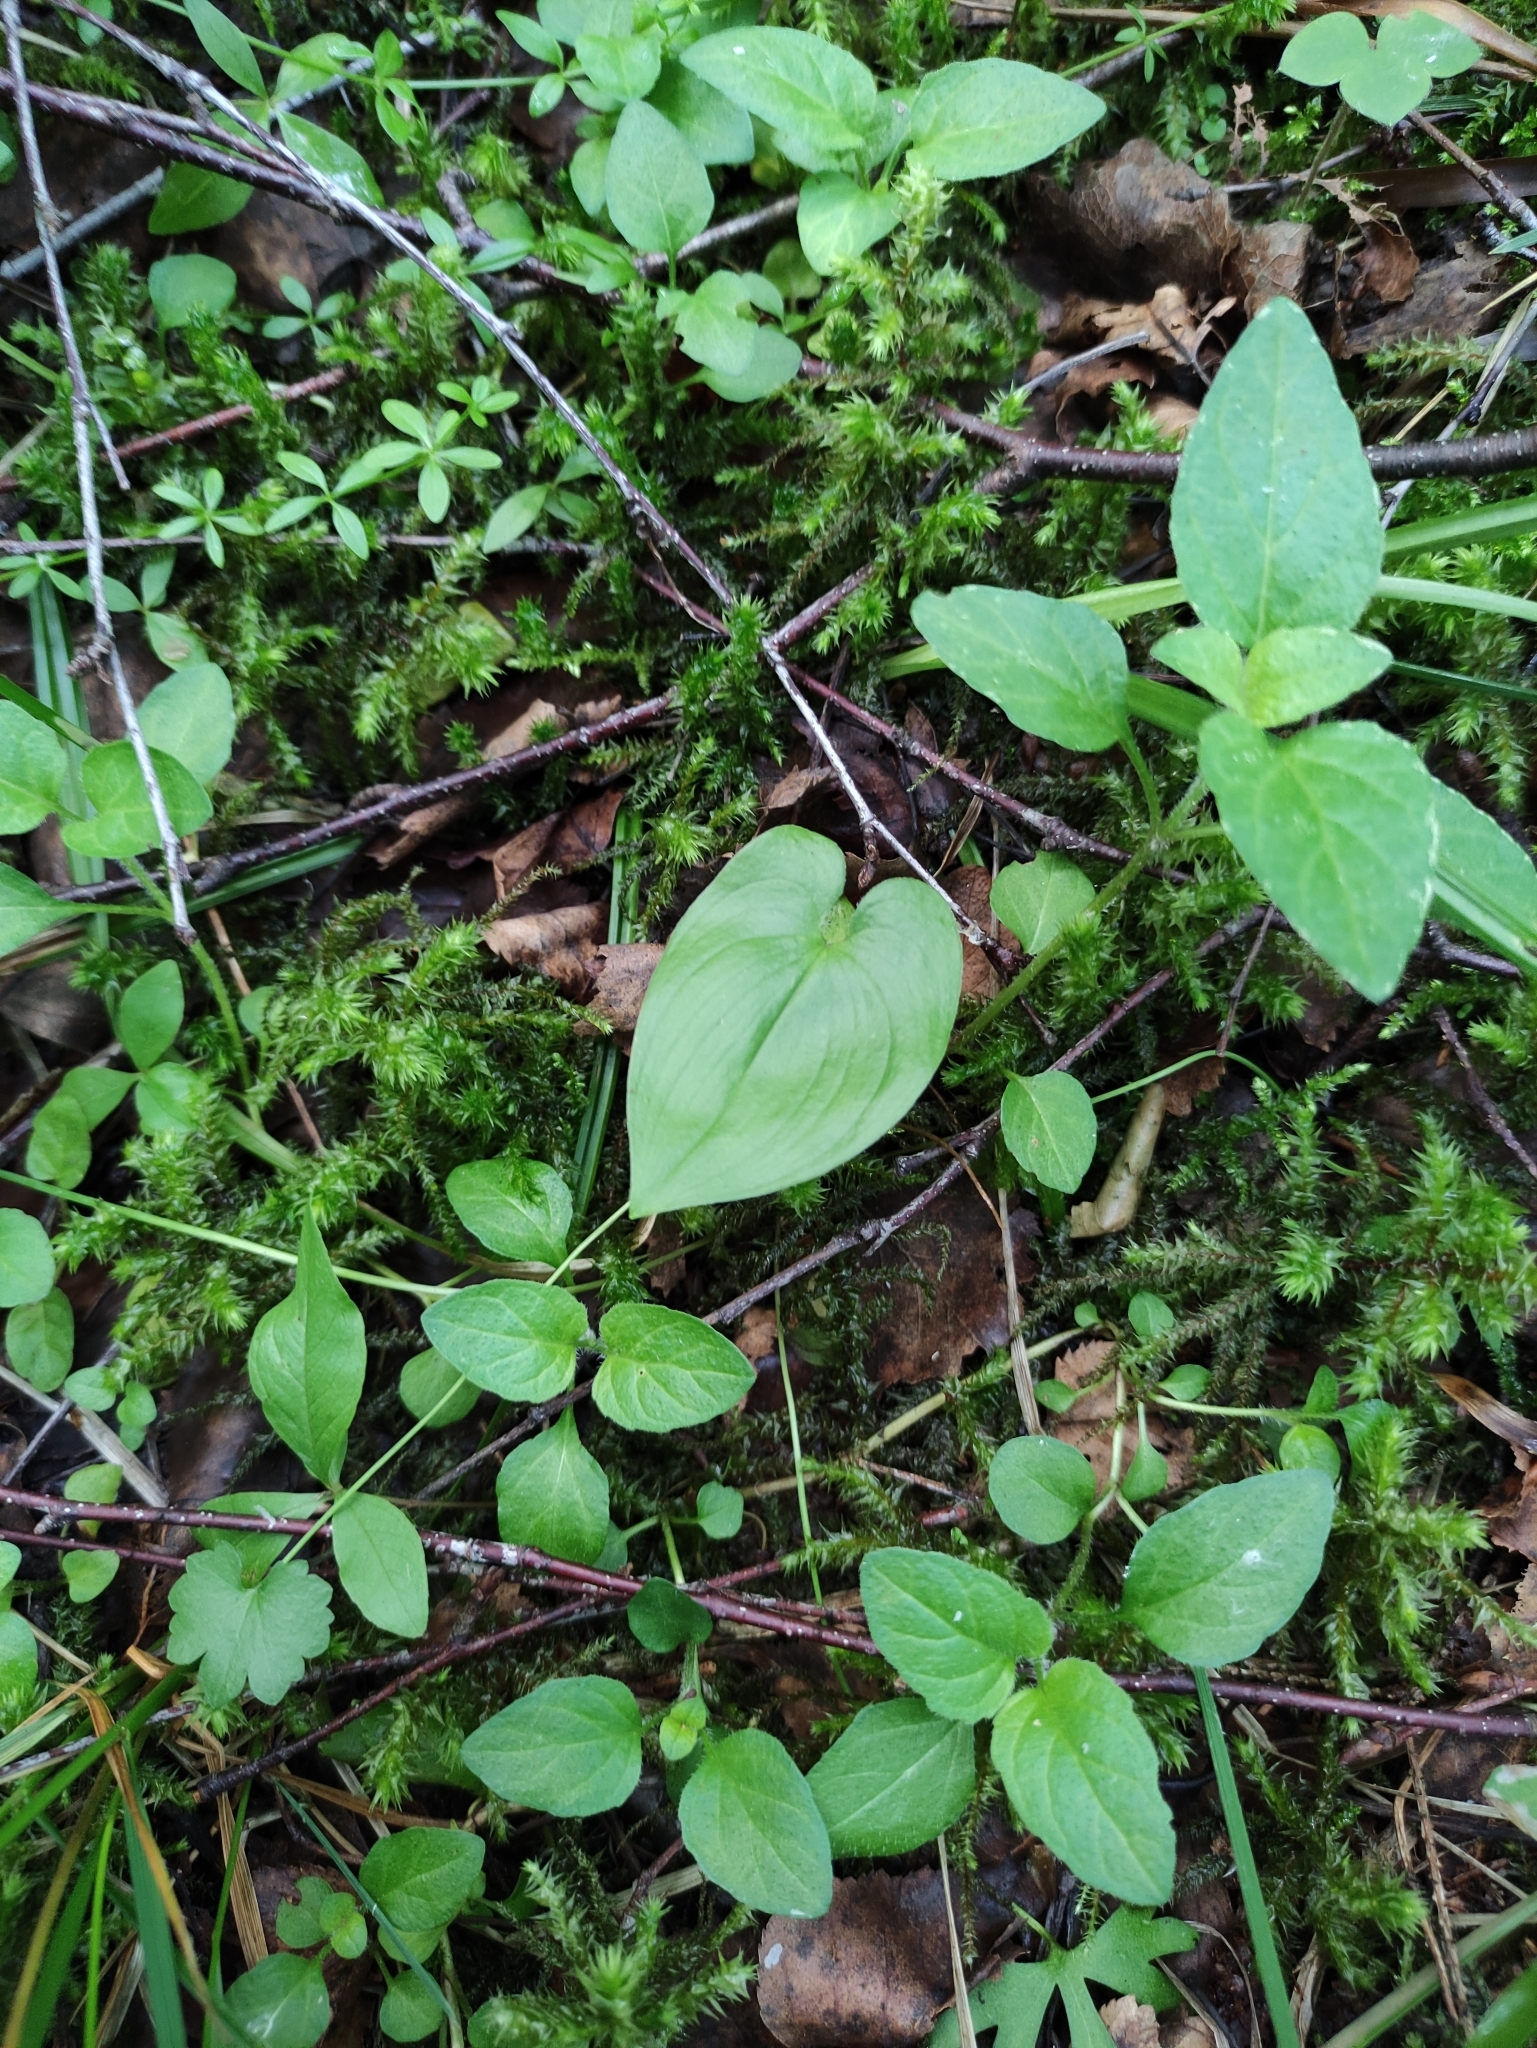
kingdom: Plantae
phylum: Tracheophyta
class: Liliopsida
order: Asparagales
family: Asparagaceae
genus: Maianthemum
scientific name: Maianthemum bifolium
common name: May lily
